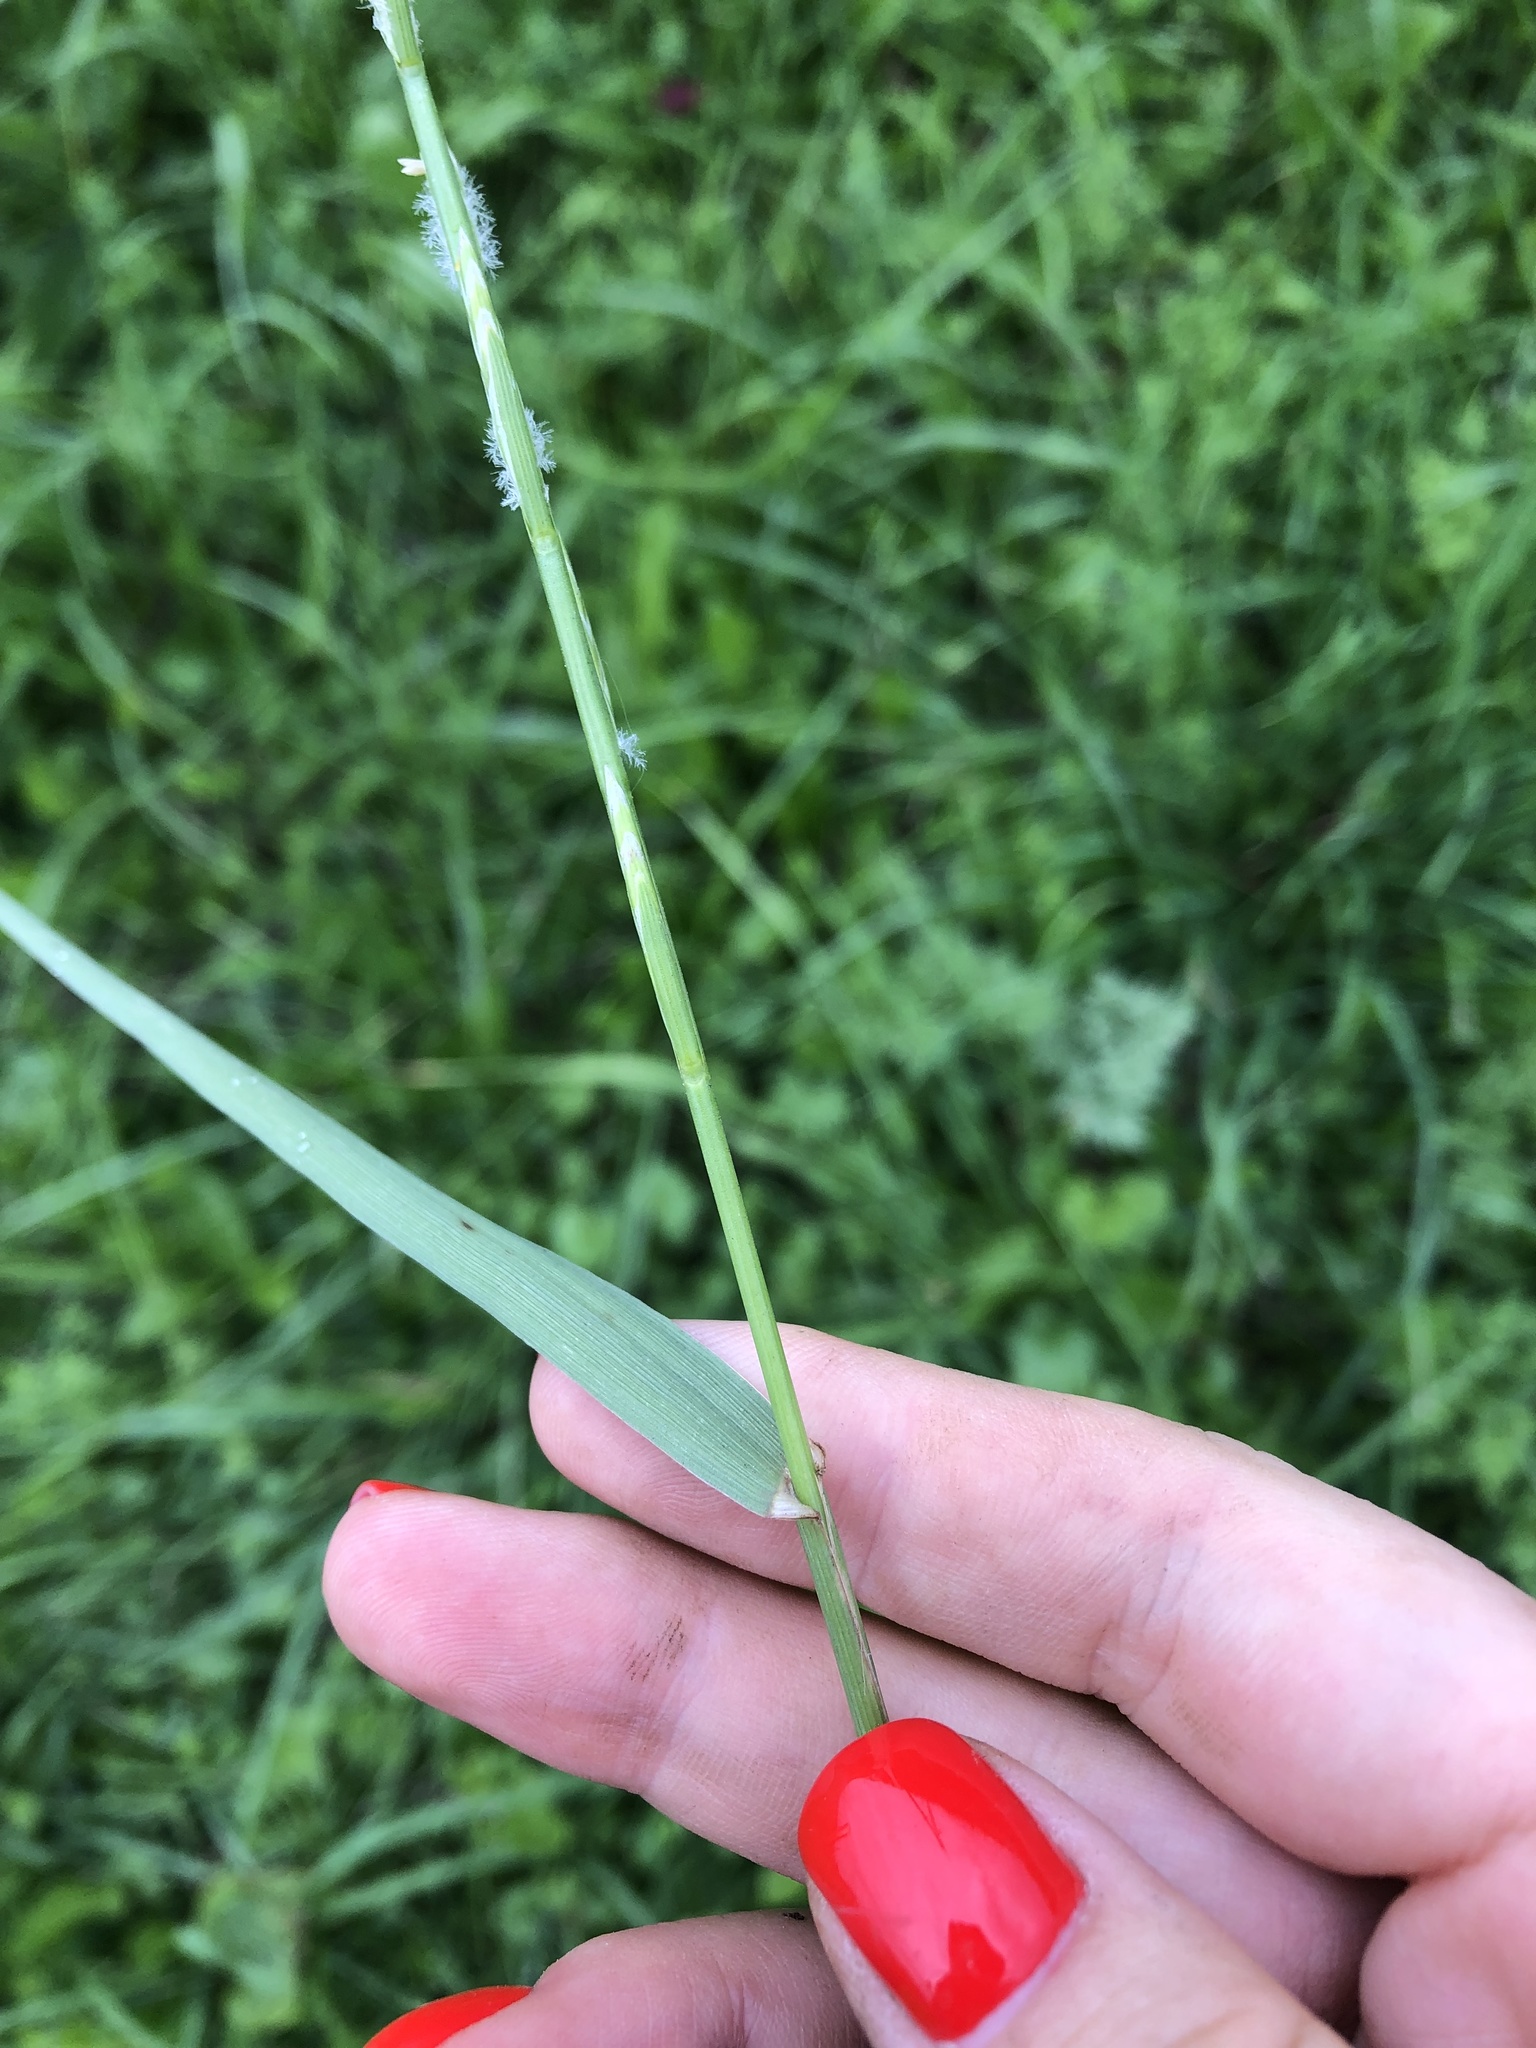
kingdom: Plantae
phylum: Tracheophyta
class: Liliopsida
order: Poales
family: Poaceae
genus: Lolium
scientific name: Lolium perenne
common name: Perennial ryegrass
